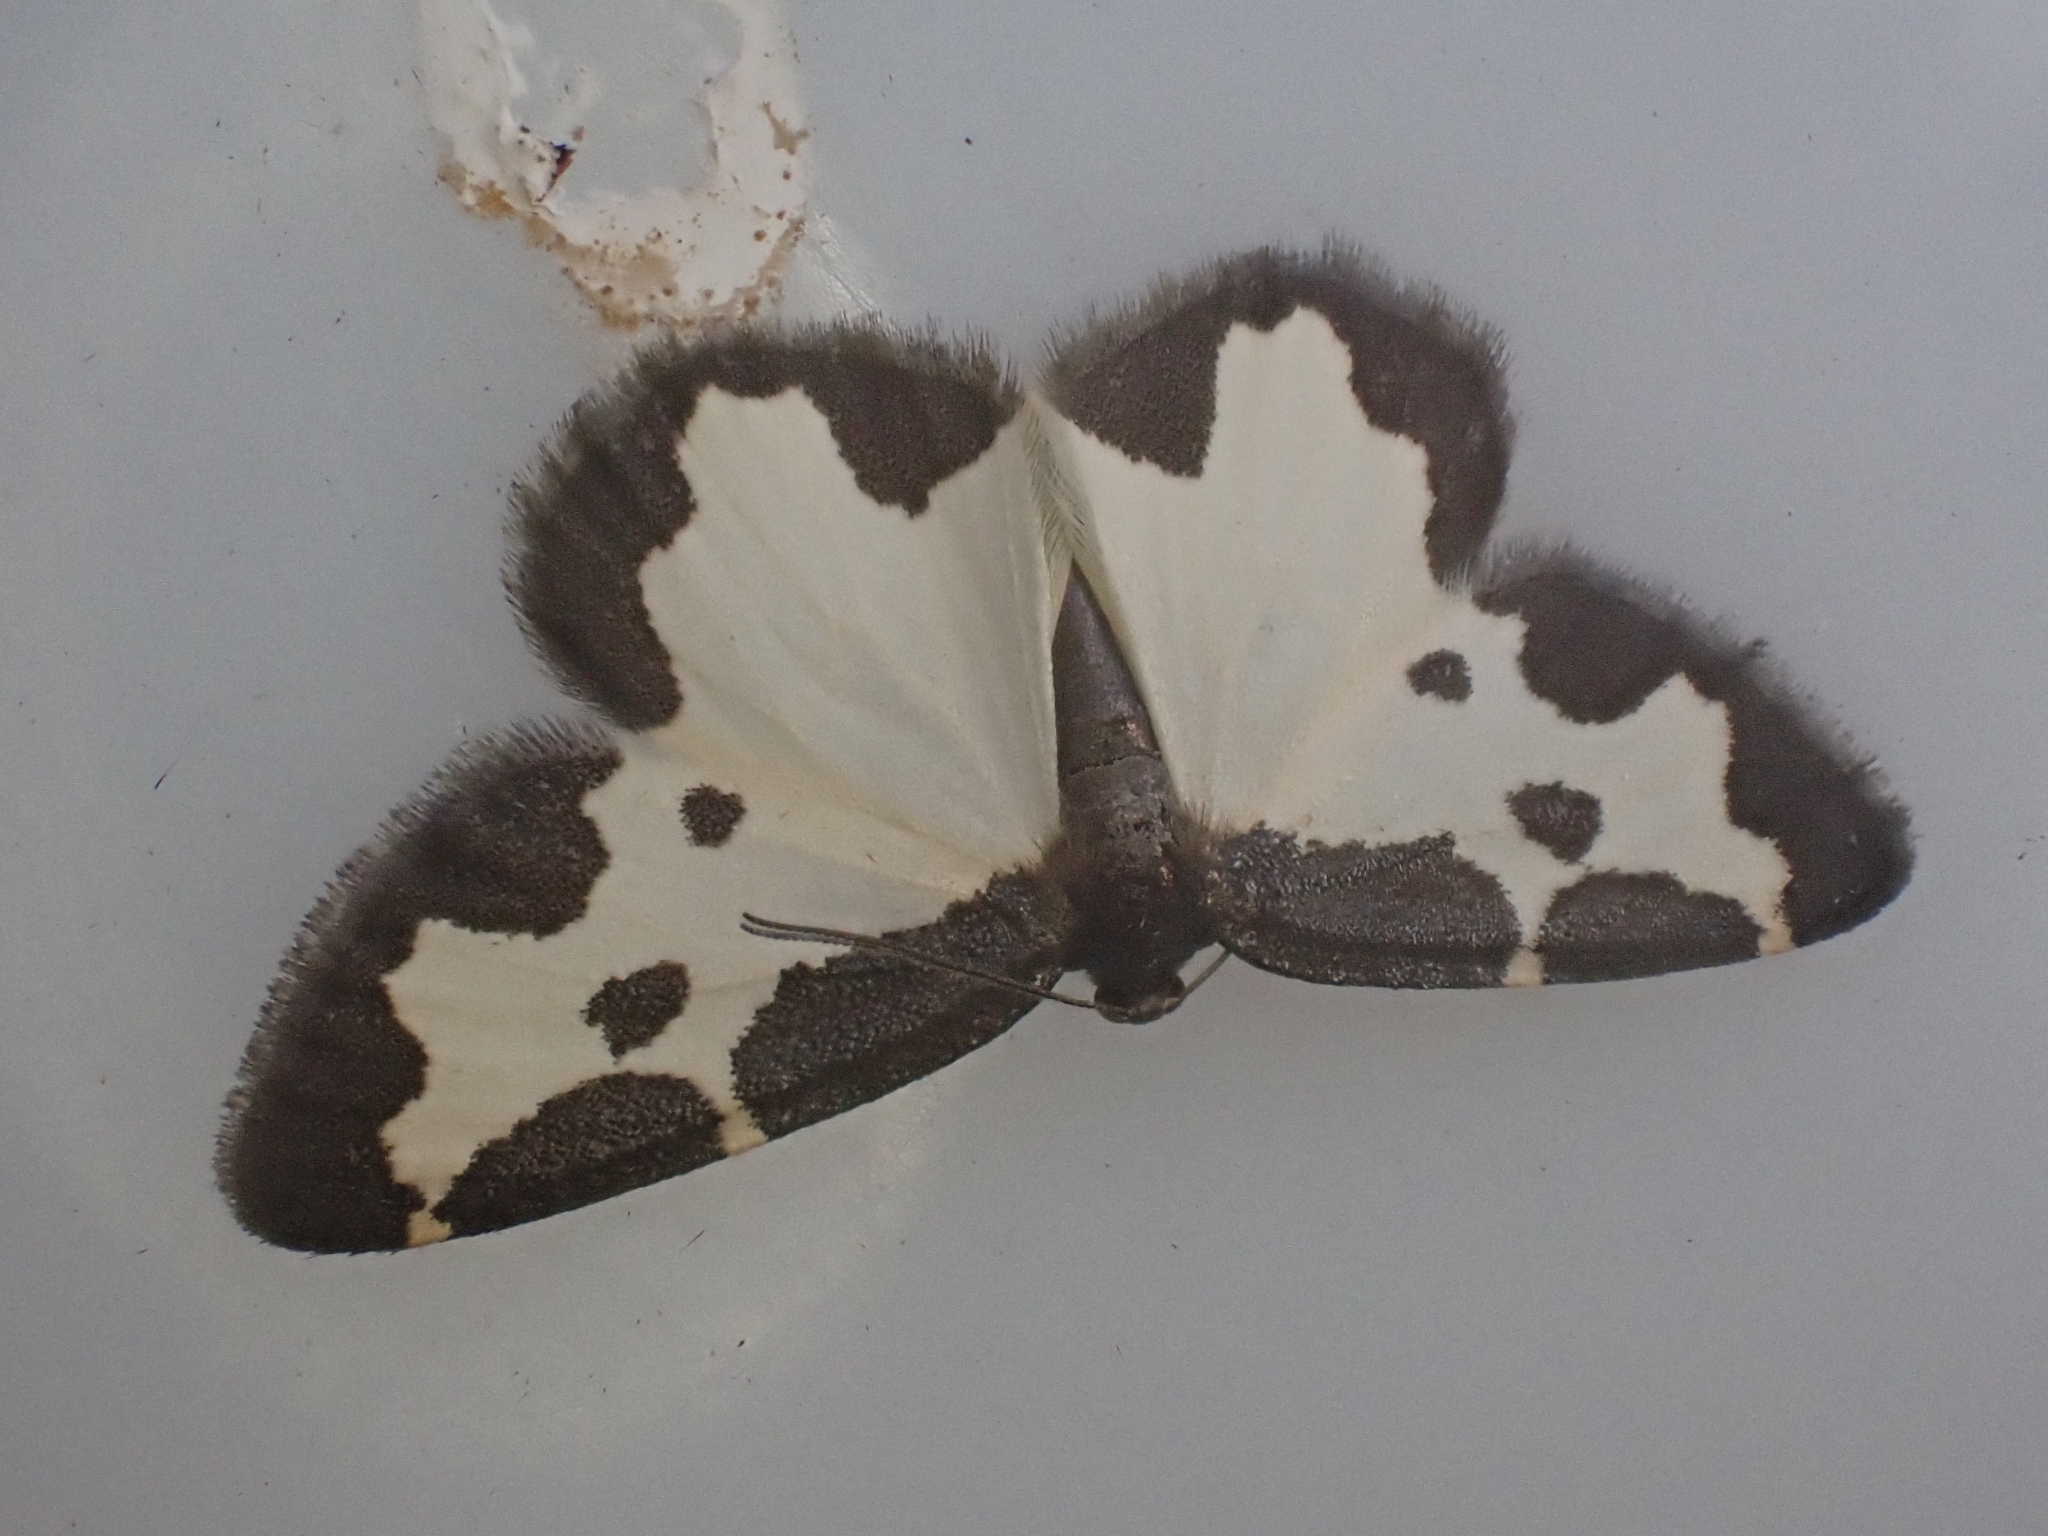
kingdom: Animalia
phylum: Arthropoda
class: Insecta
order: Lepidoptera
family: Geometridae
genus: Lomaspilis
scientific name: Lomaspilis marginata
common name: Clouded border
